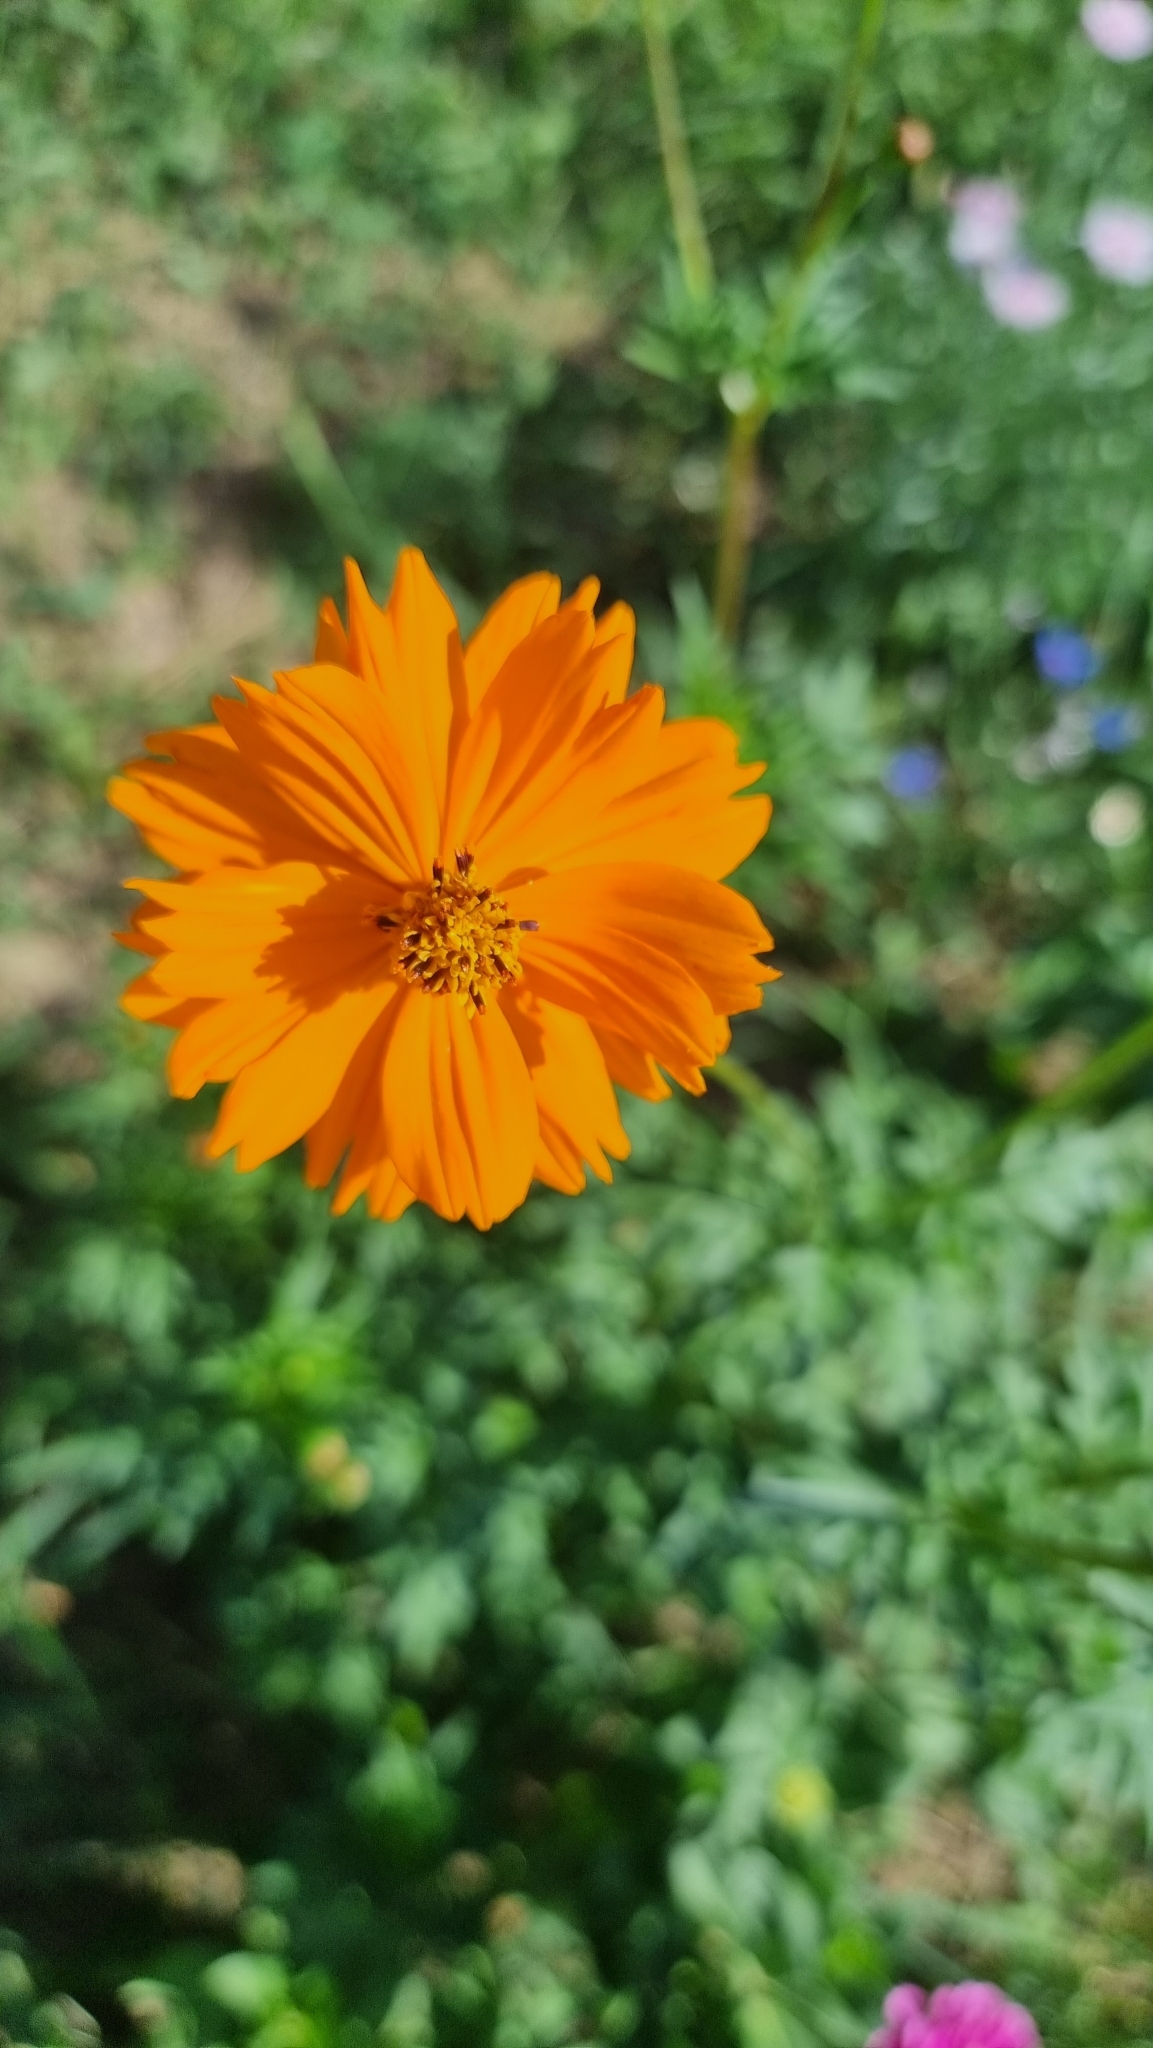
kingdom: Plantae
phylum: Tracheophyta
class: Magnoliopsida
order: Asterales
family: Asteraceae
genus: Cosmos
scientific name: Cosmos sulphureus
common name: Sulphur cosmos
